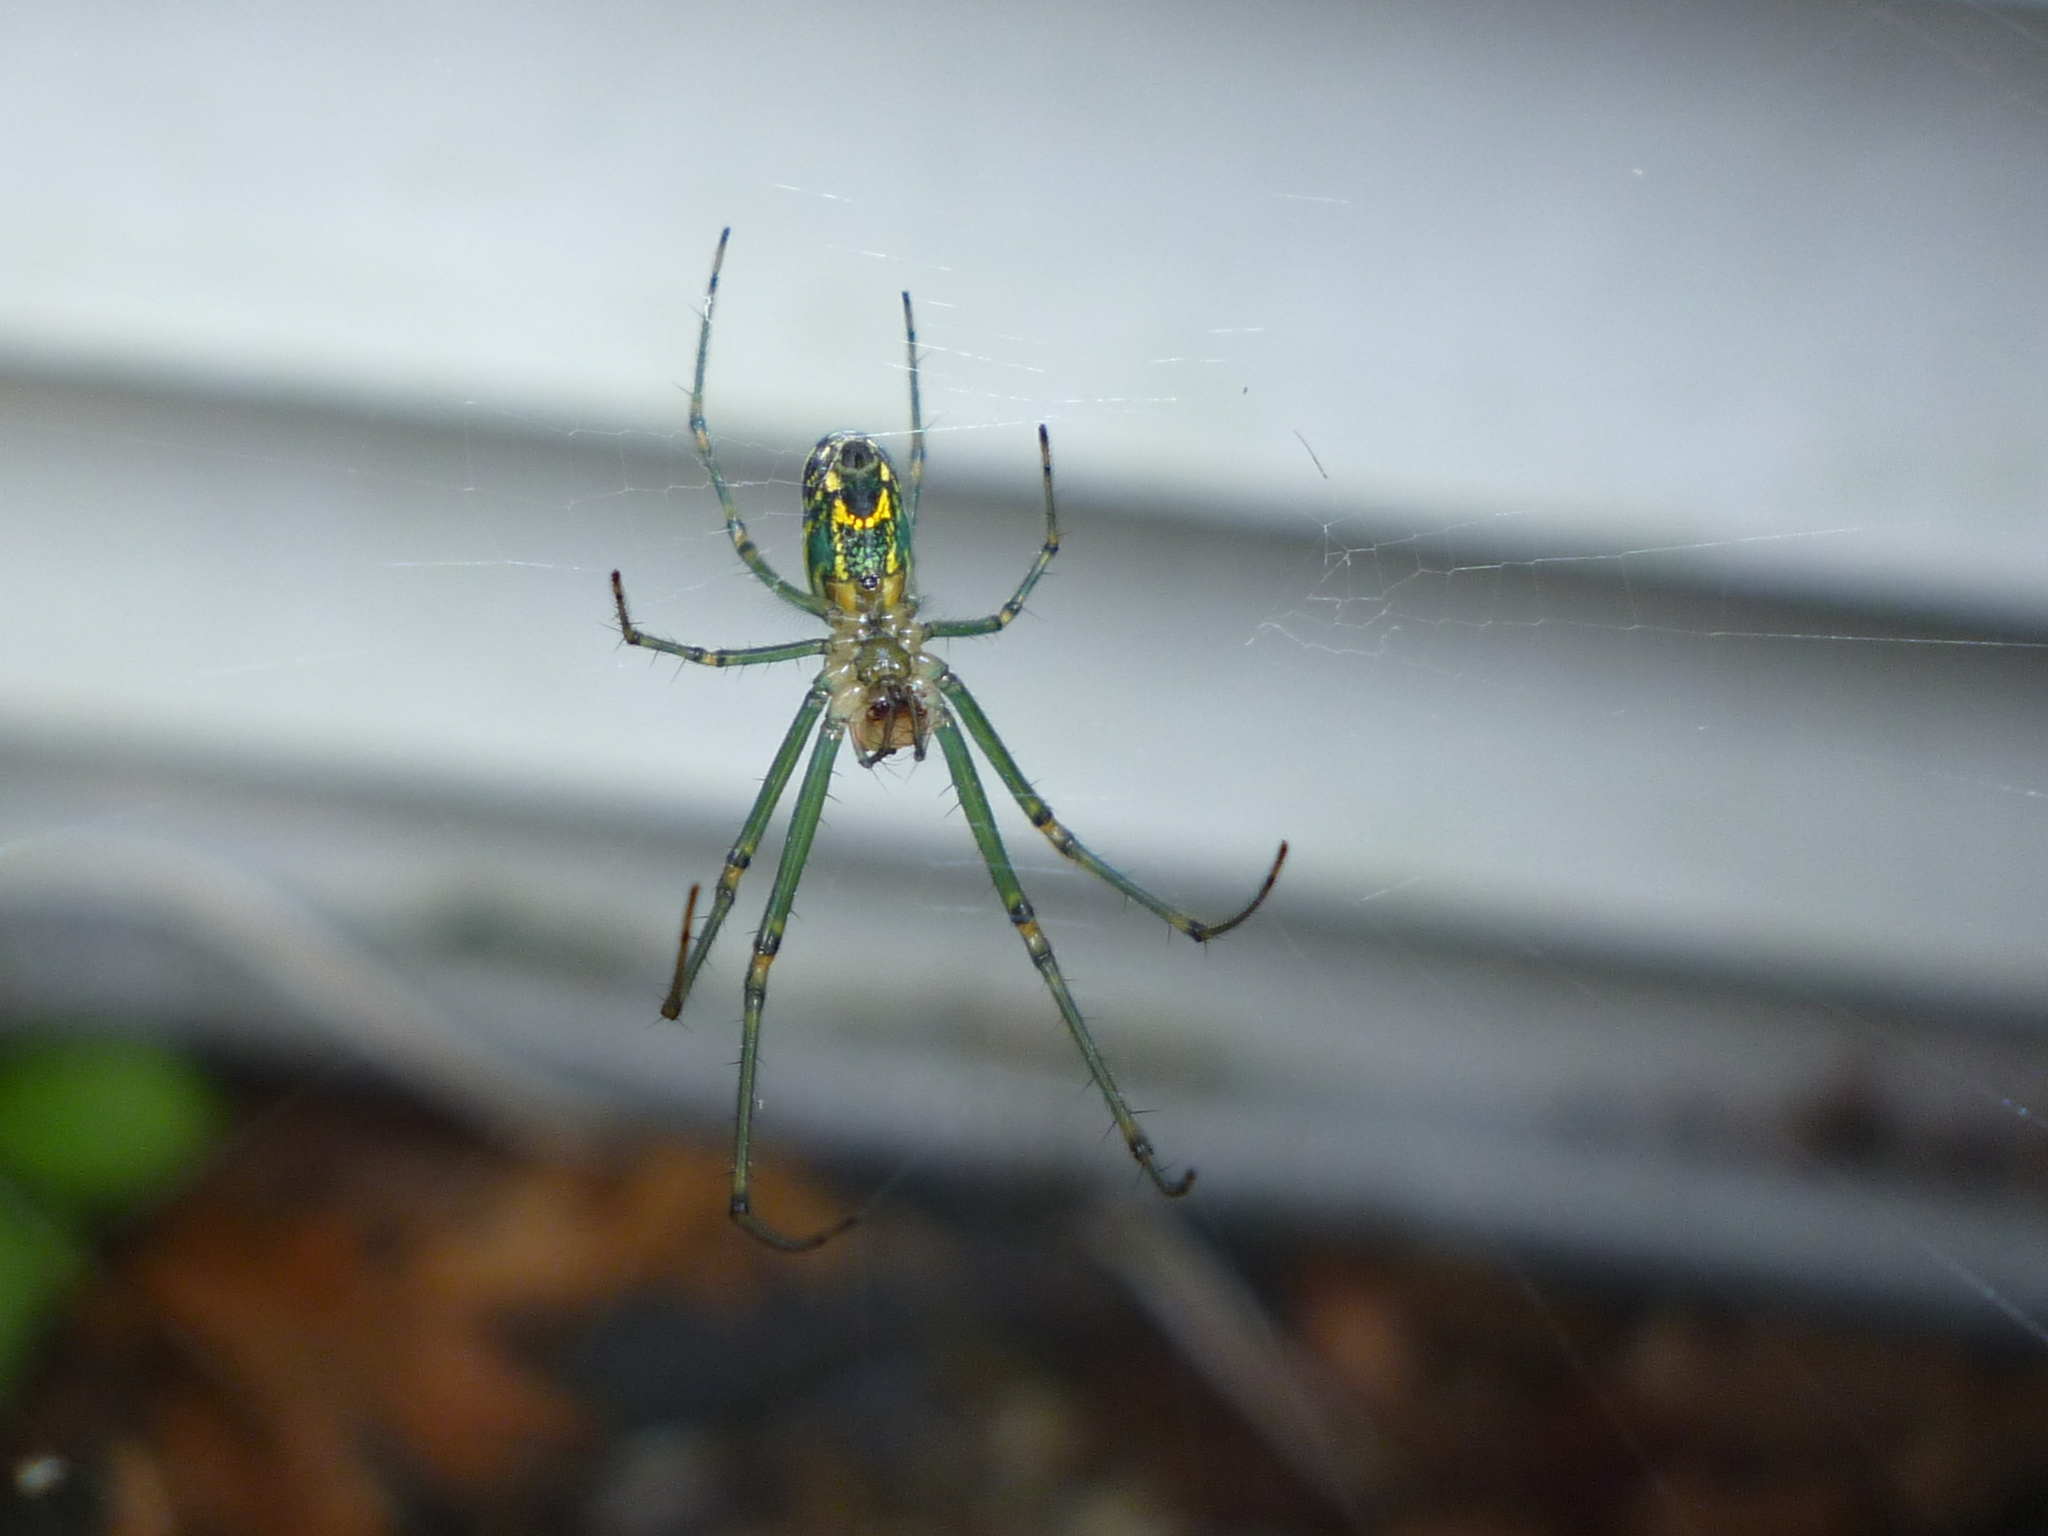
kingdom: Animalia
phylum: Arthropoda
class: Arachnida
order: Araneae
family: Tetragnathidae
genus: Leucauge
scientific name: Leucauge venusta
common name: Longjawed orb weavers
